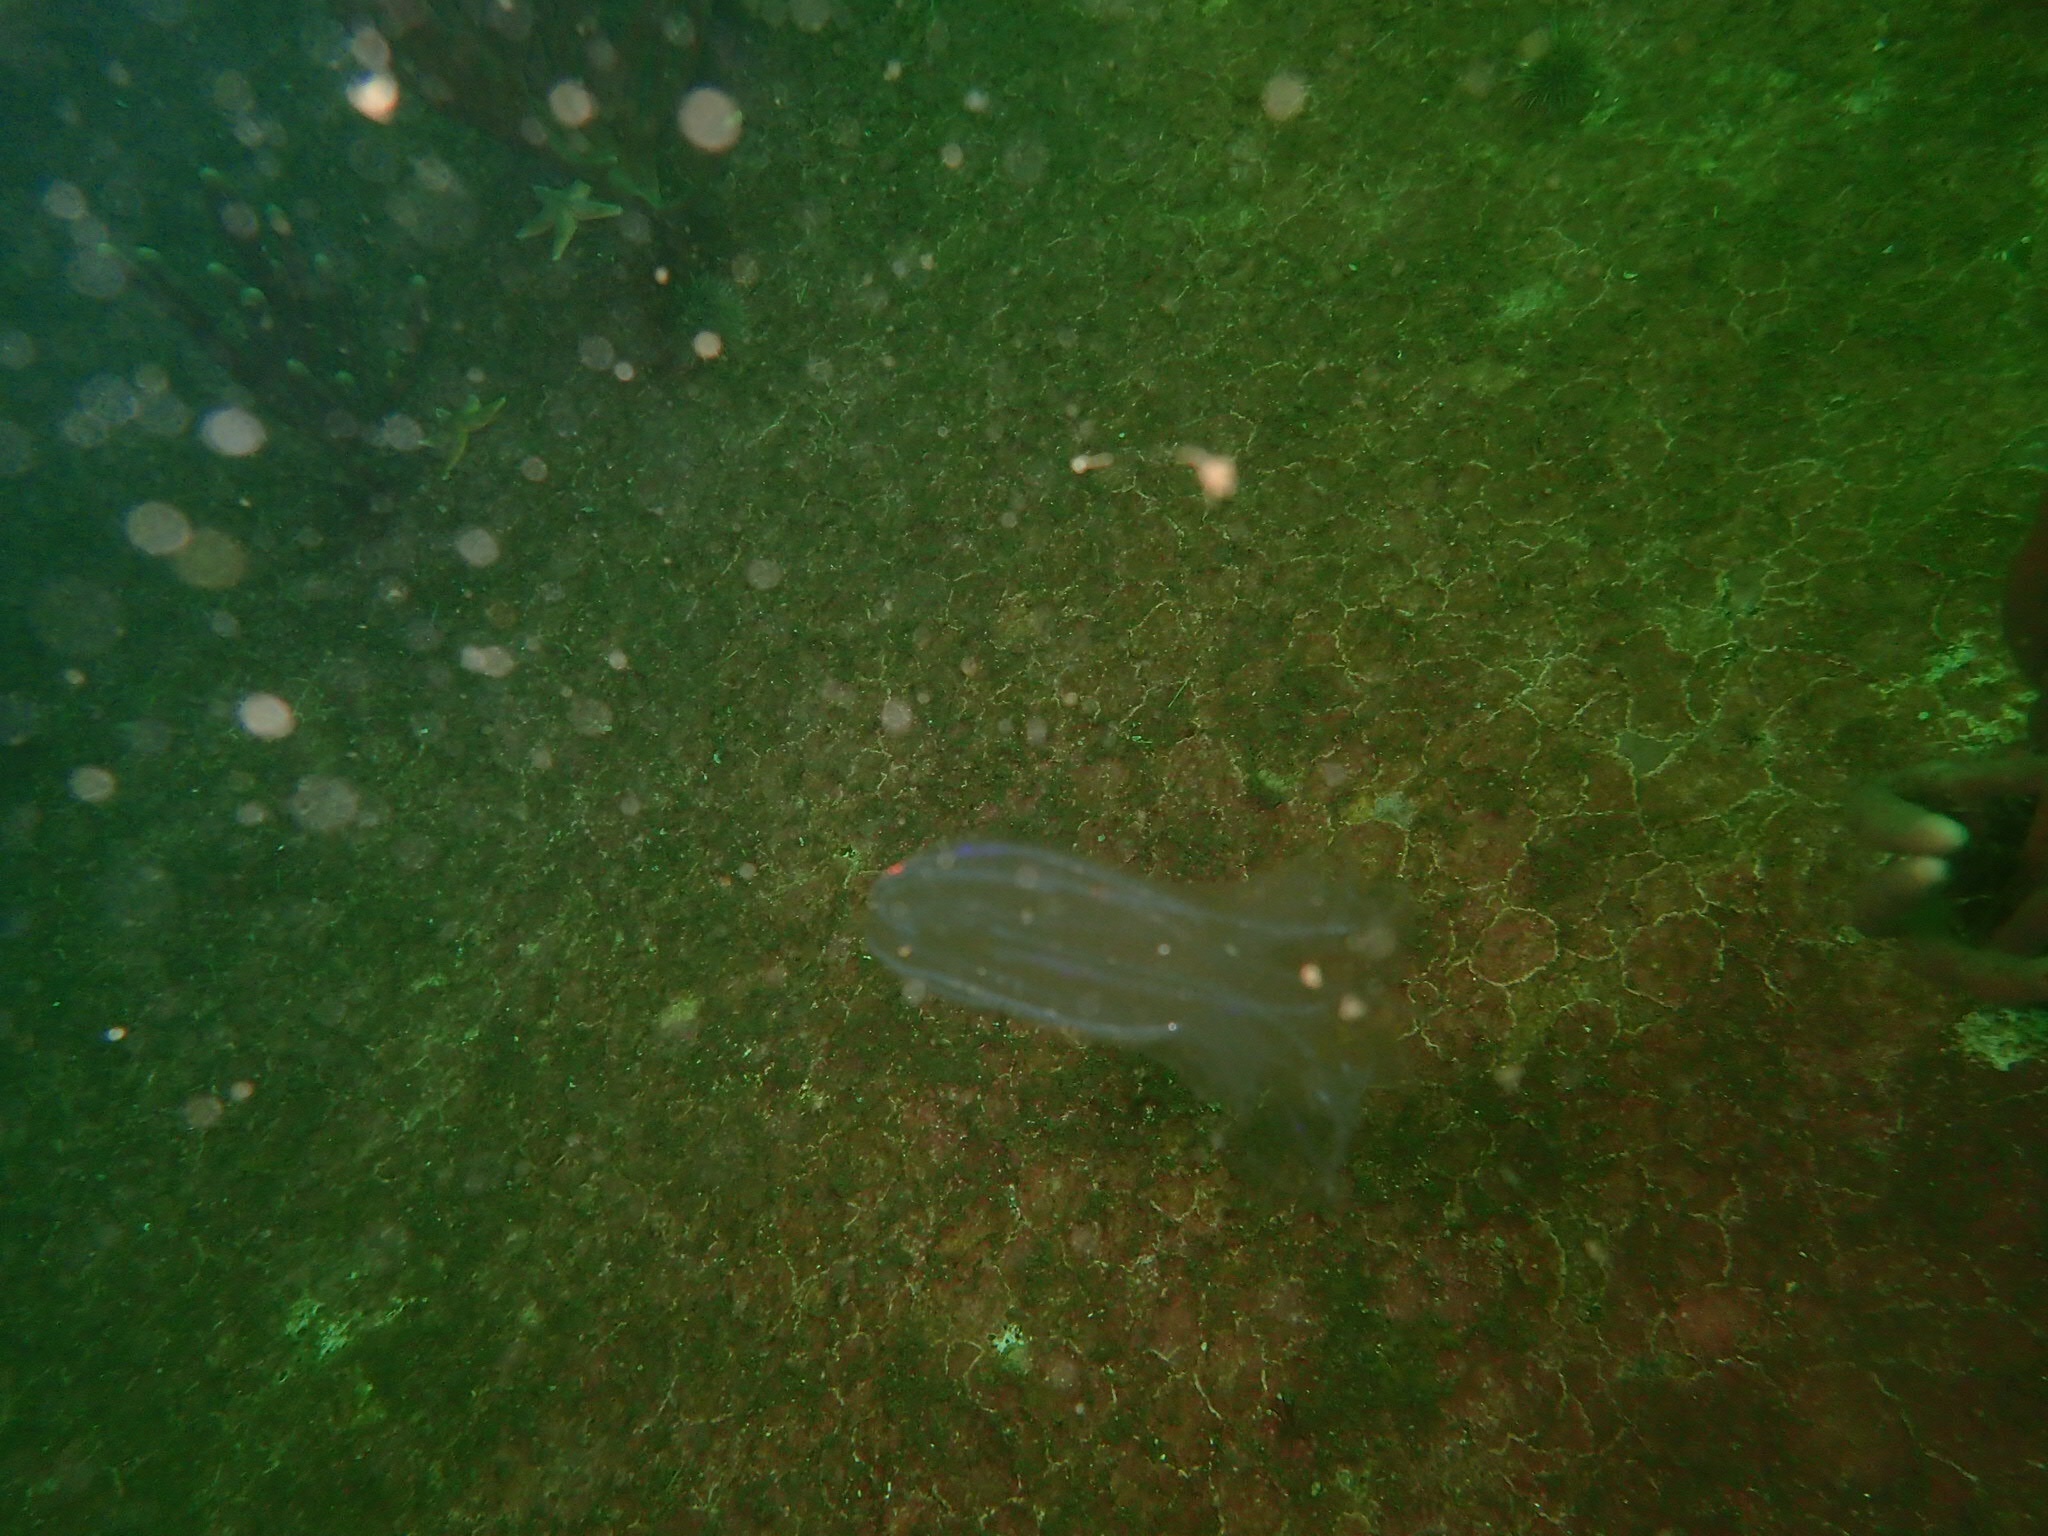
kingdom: Animalia
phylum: Ctenophora
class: Tentaculata
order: Lobata
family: Bolinopsidae
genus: Mnemiopsis
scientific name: Mnemiopsis leidyi
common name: American comb jelly
